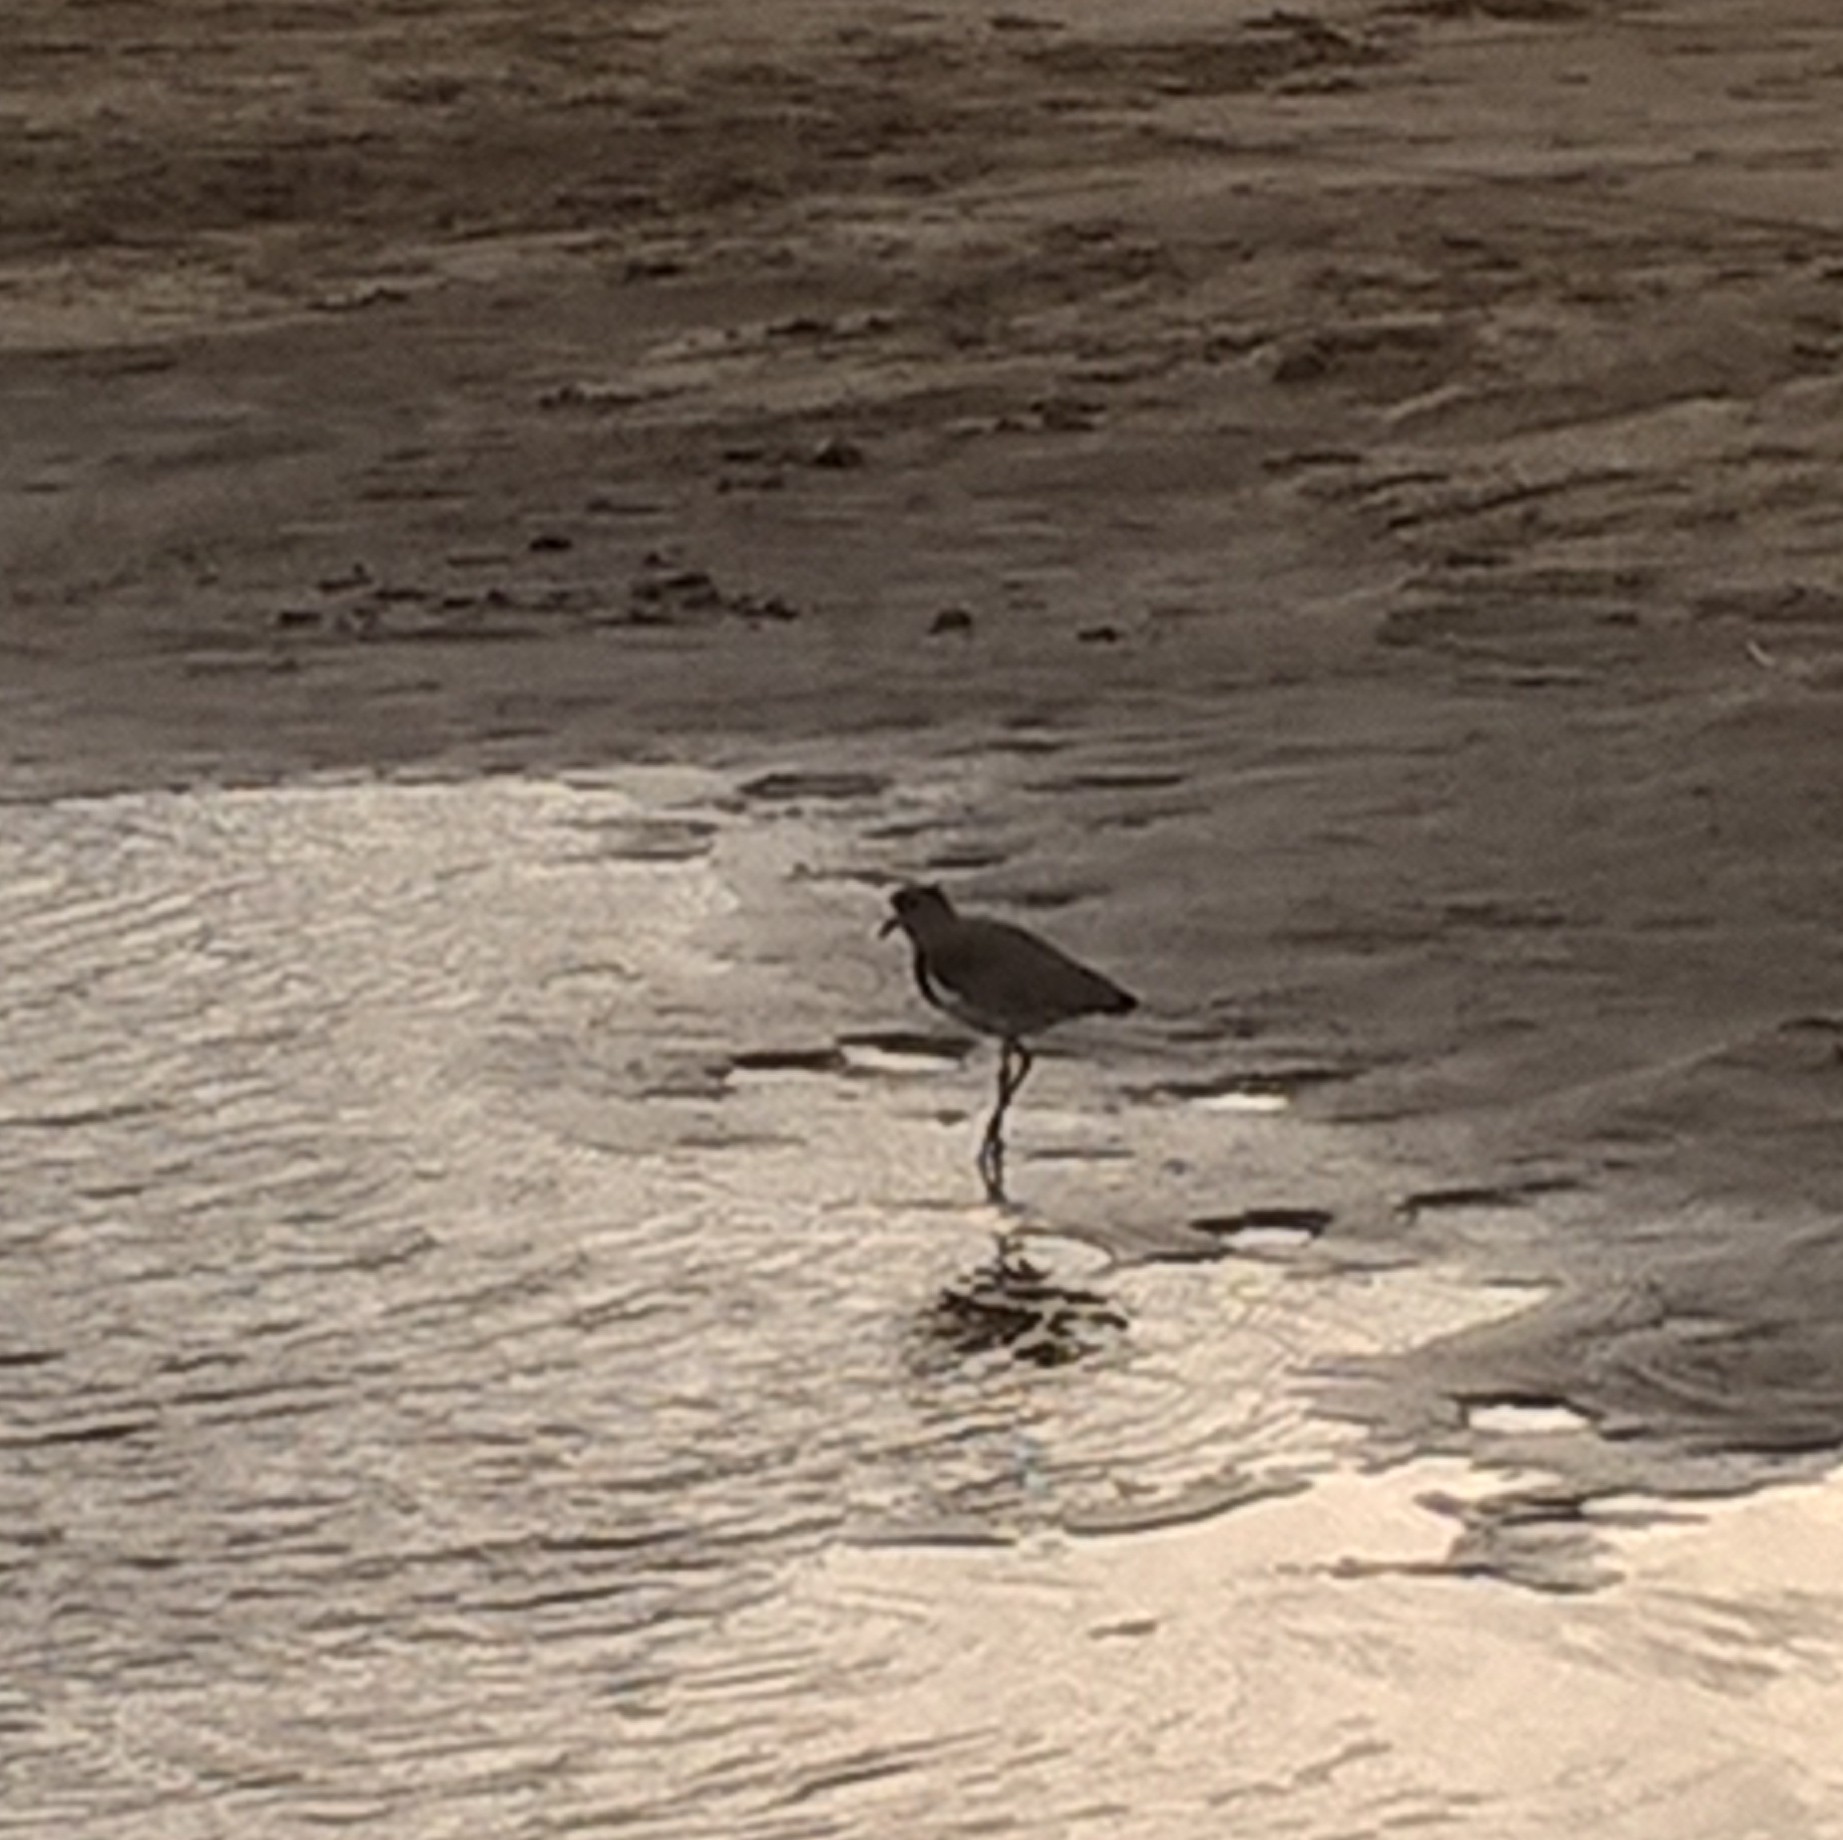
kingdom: Animalia
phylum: Chordata
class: Aves
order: Charadriiformes
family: Charadriidae
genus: Vanellus
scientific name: Vanellus chilensis
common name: Southern lapwing
